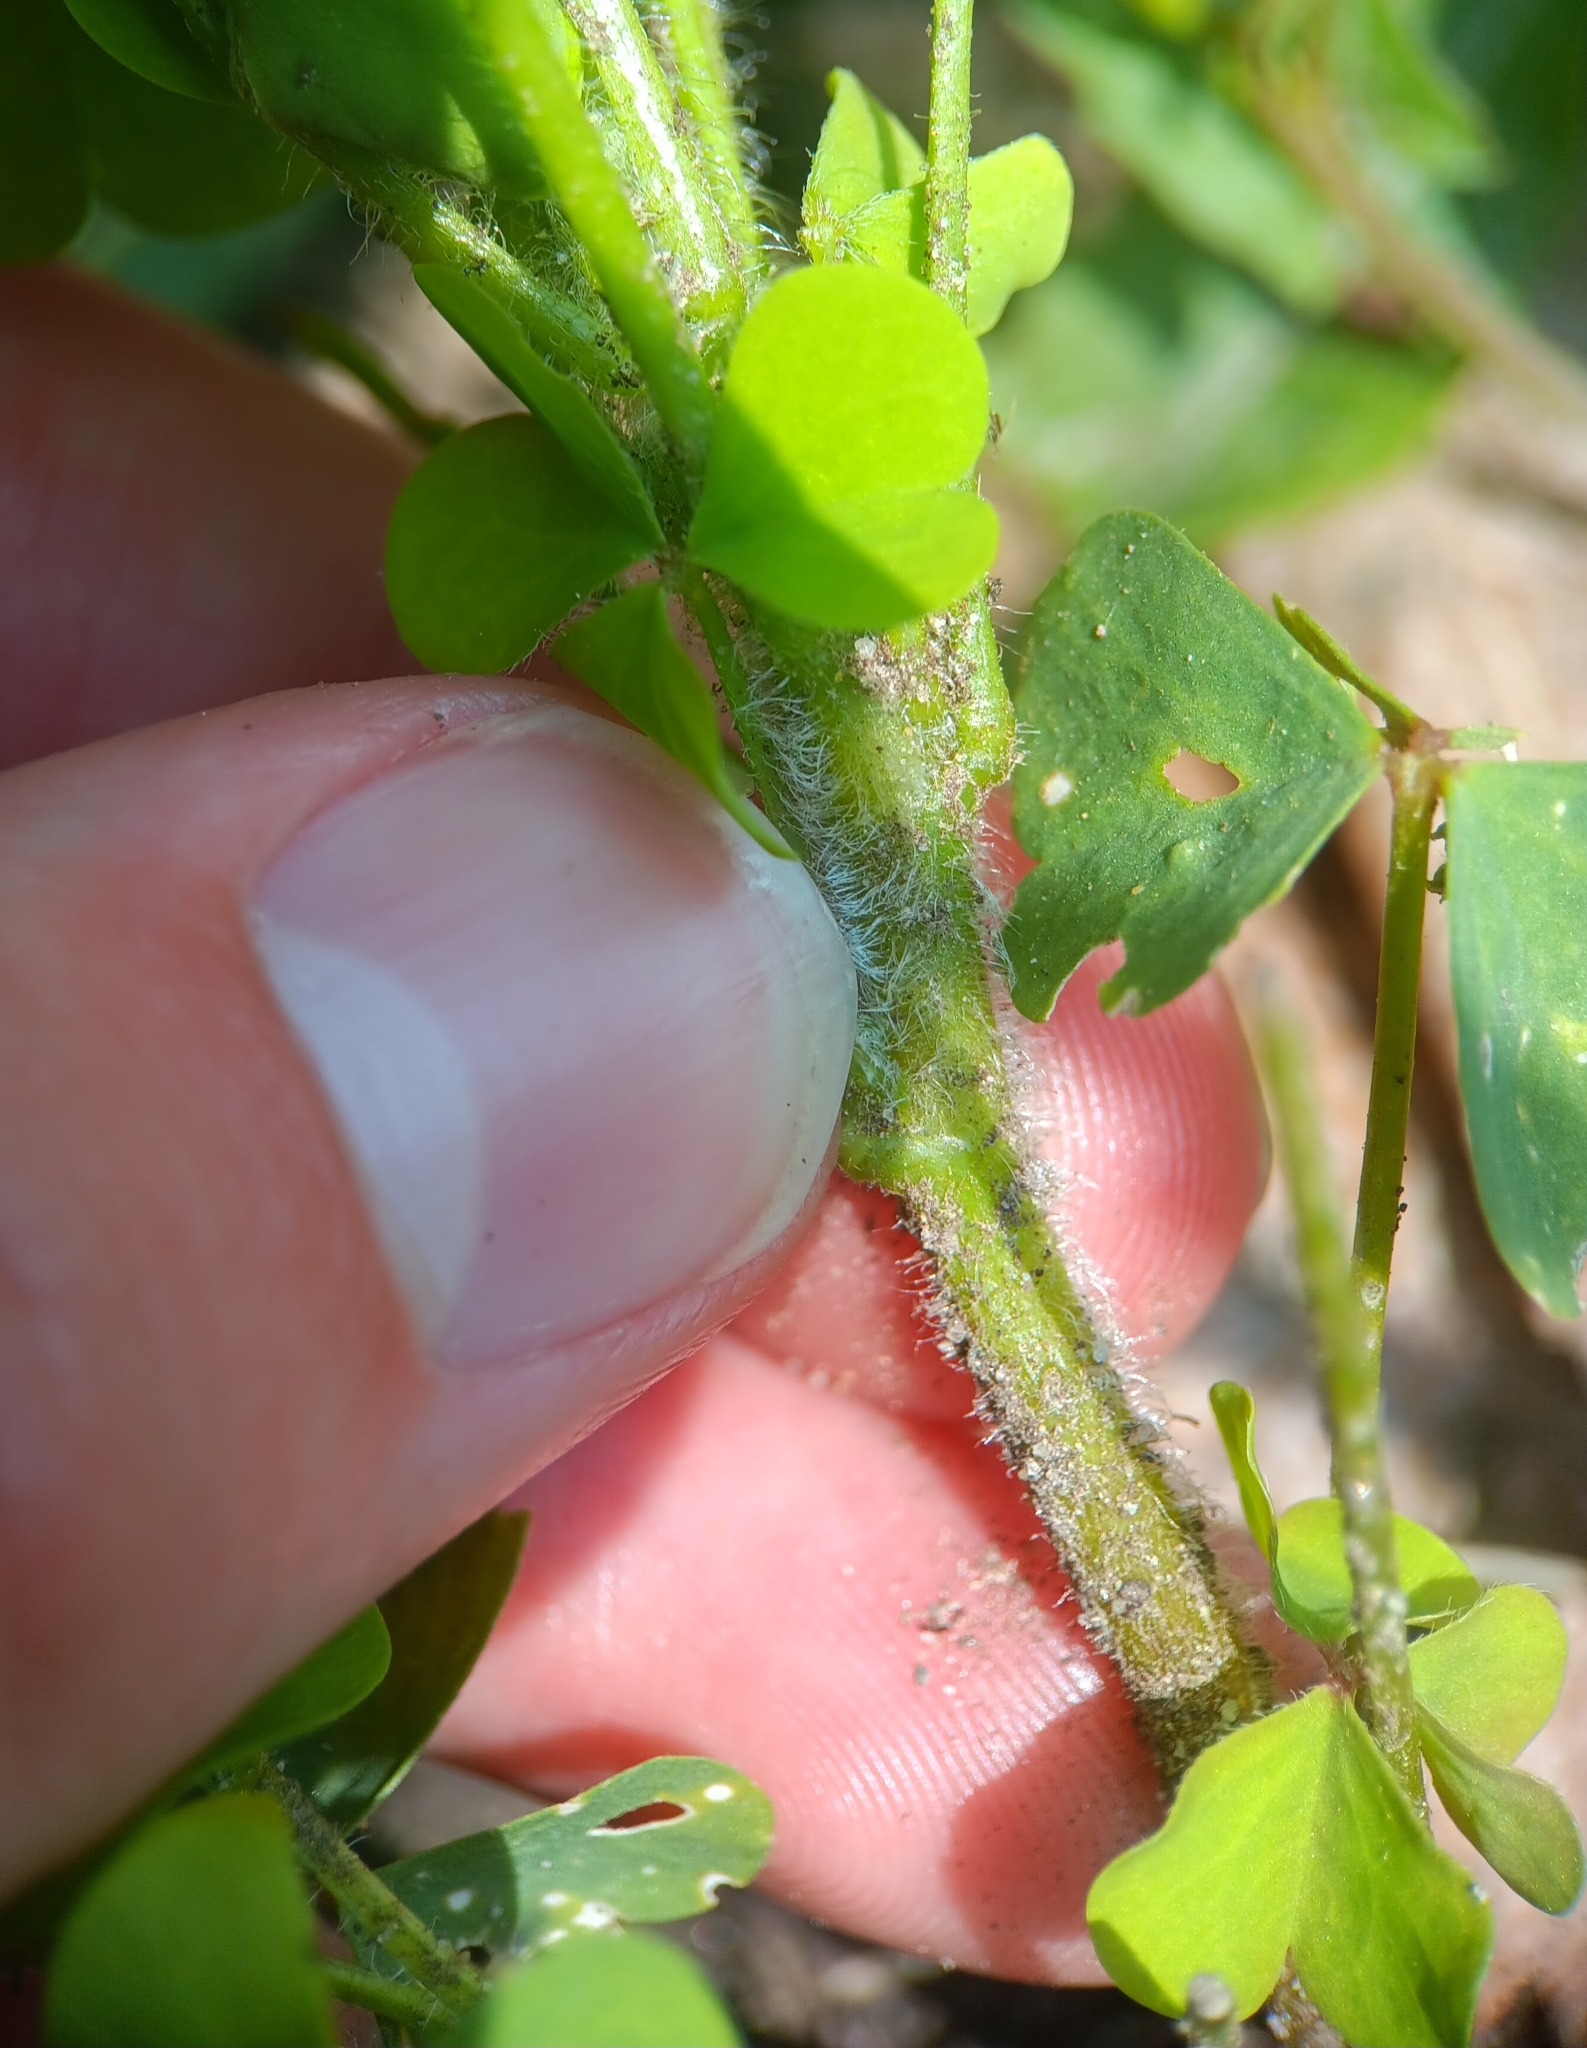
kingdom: Plantae
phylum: Tracheophyta
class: Magnoliopsida
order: Oxalidales
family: Oxalidaceae
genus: Oxalis
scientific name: Oxalis stricta
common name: Upright yellow-sorrel
